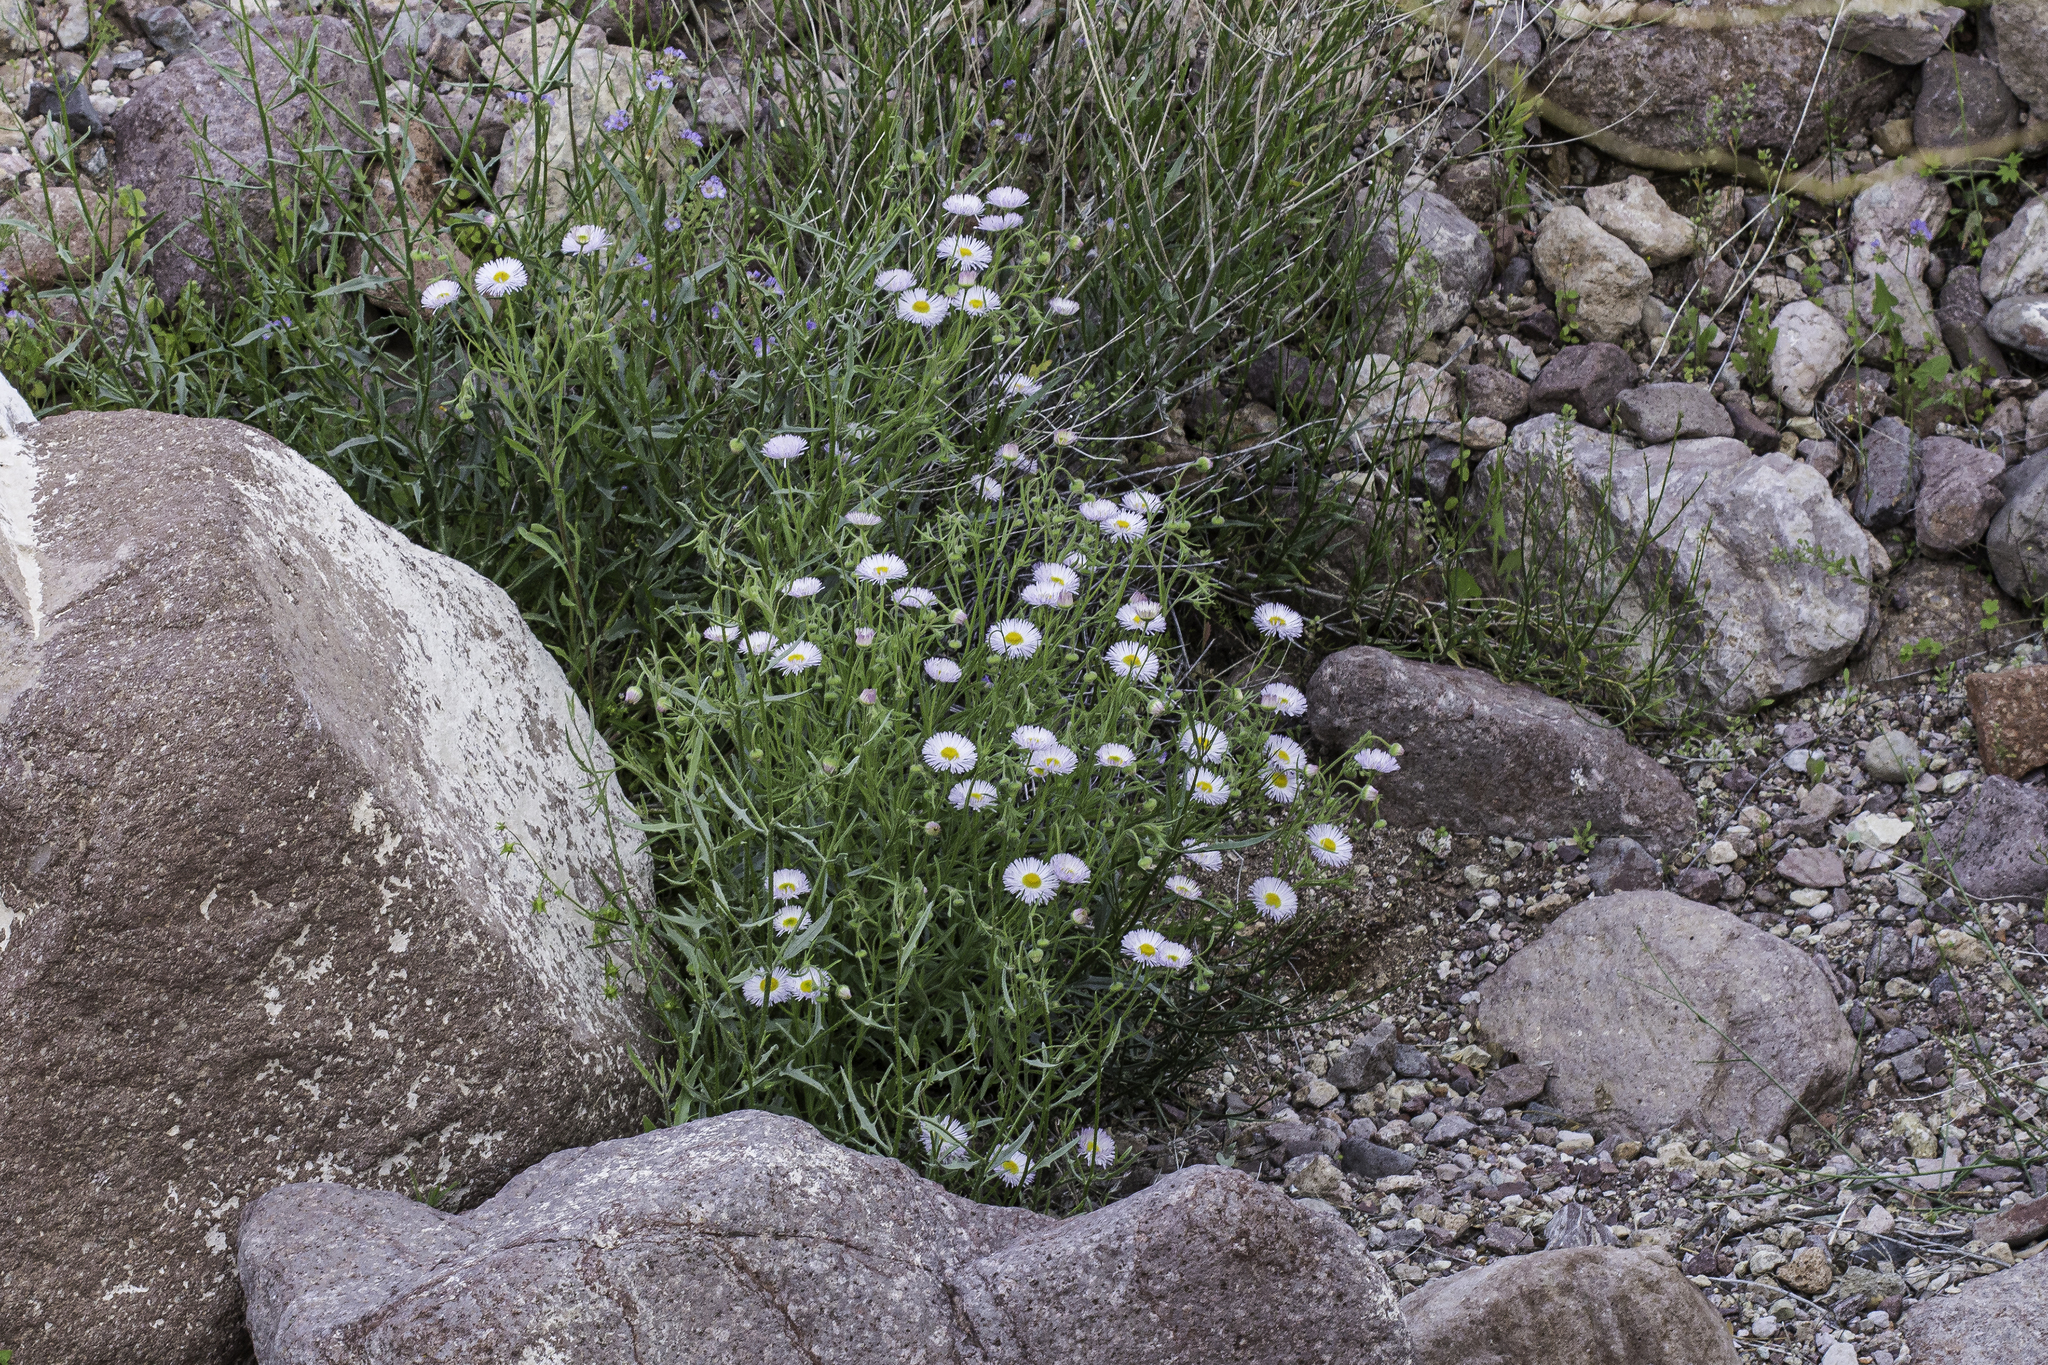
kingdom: Plantae
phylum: Tracheophyta
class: Magnoliopsida
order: Asterales
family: Asteraceae
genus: Erigeron
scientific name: Erigeron divergens
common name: Diffuse fleabane
